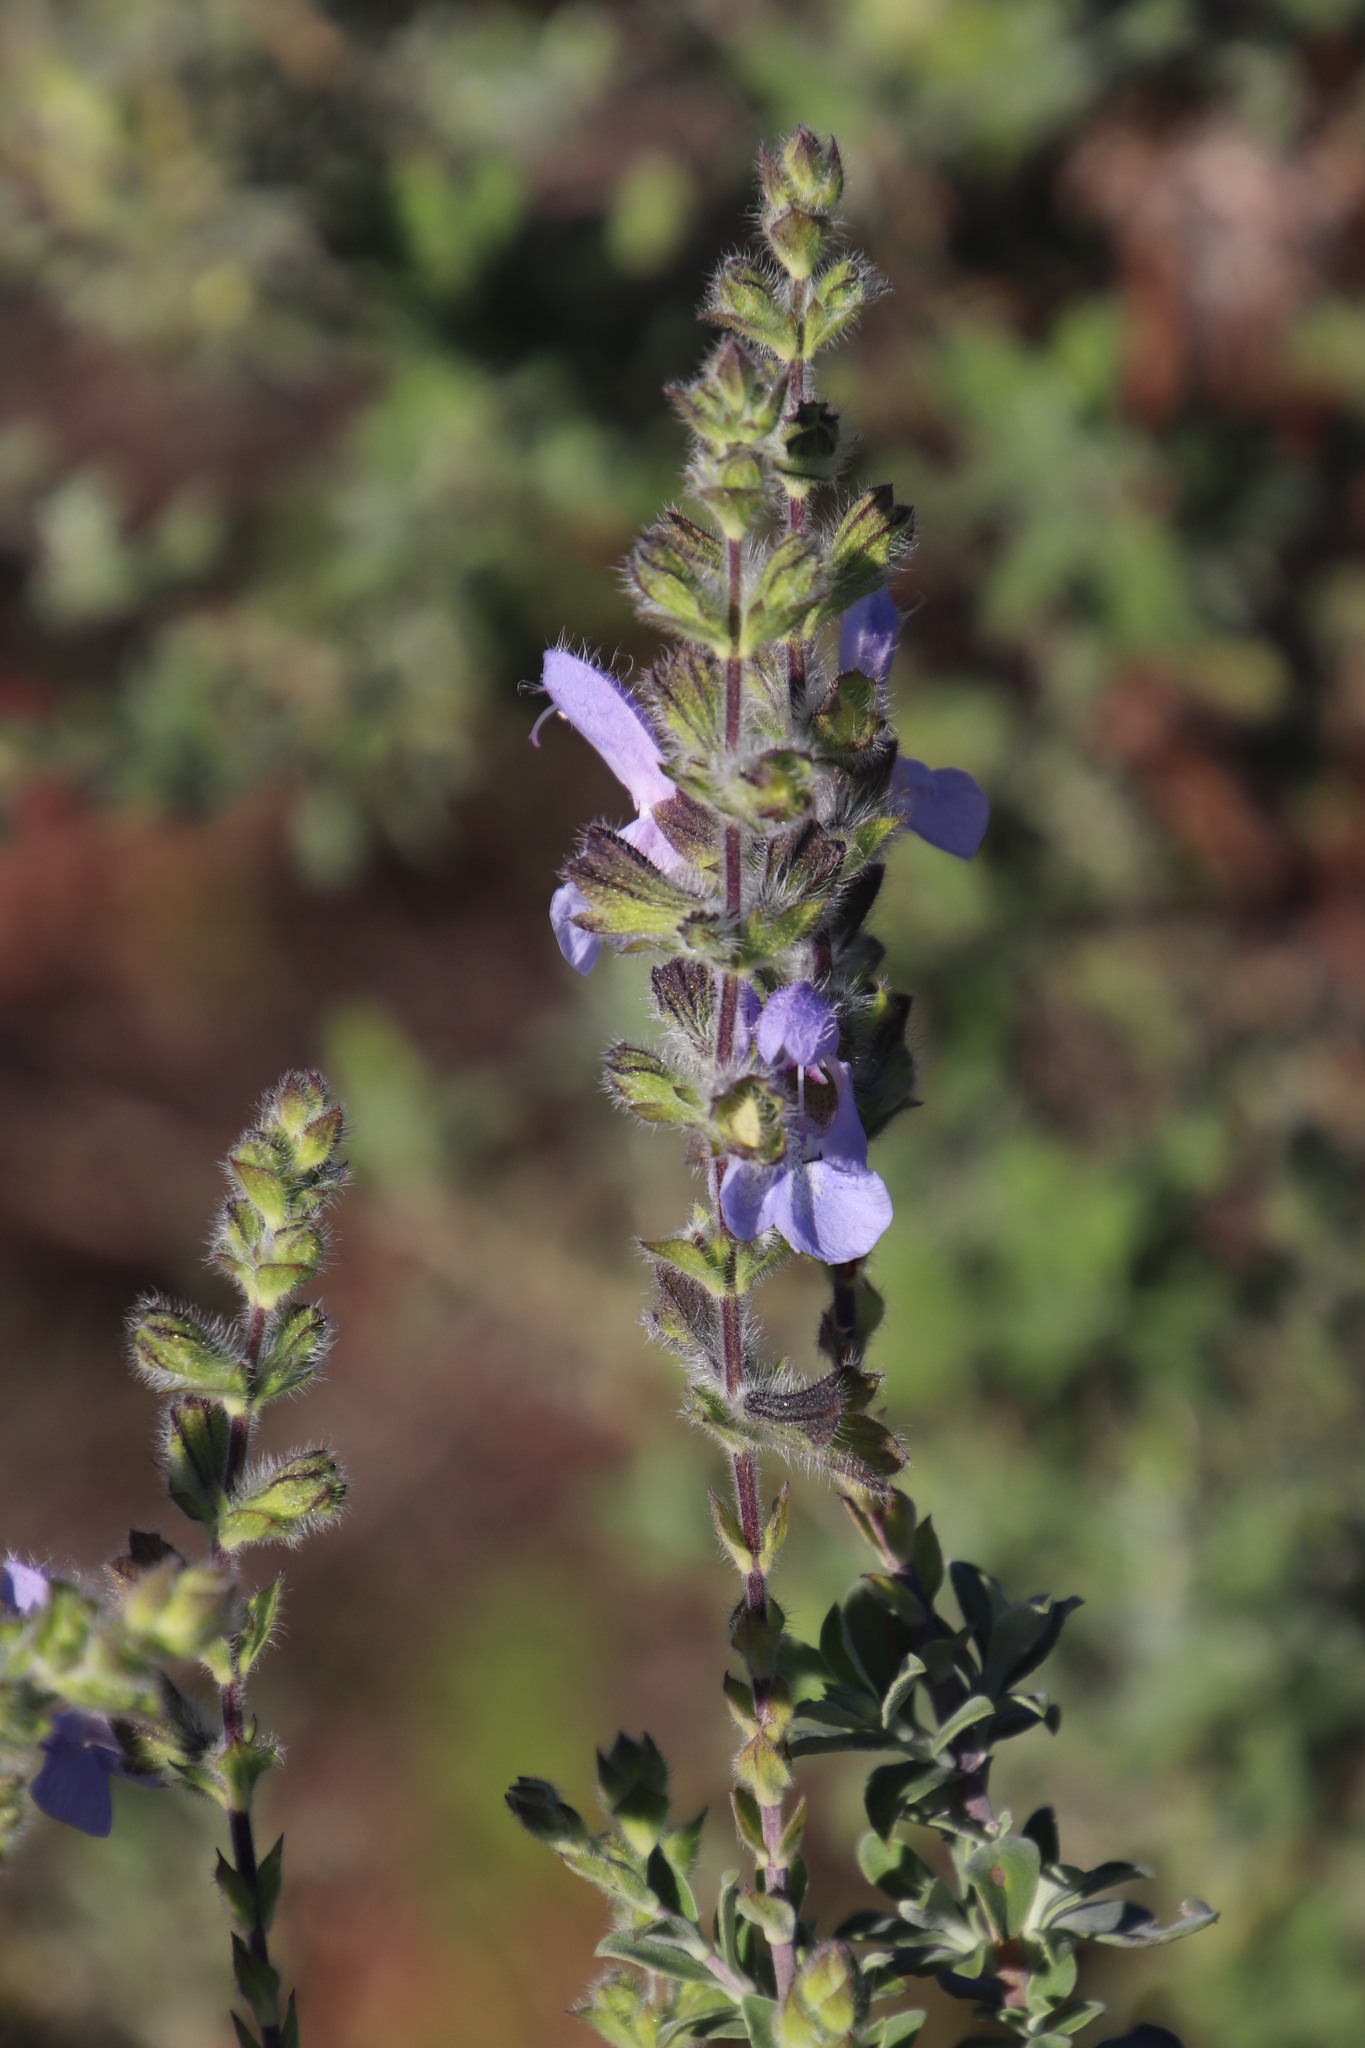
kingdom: Plantae
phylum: Tracheophyta
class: Magnoliopsida
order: Lamiales
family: Lamiaceae
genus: Salvia
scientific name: Salvia africana
